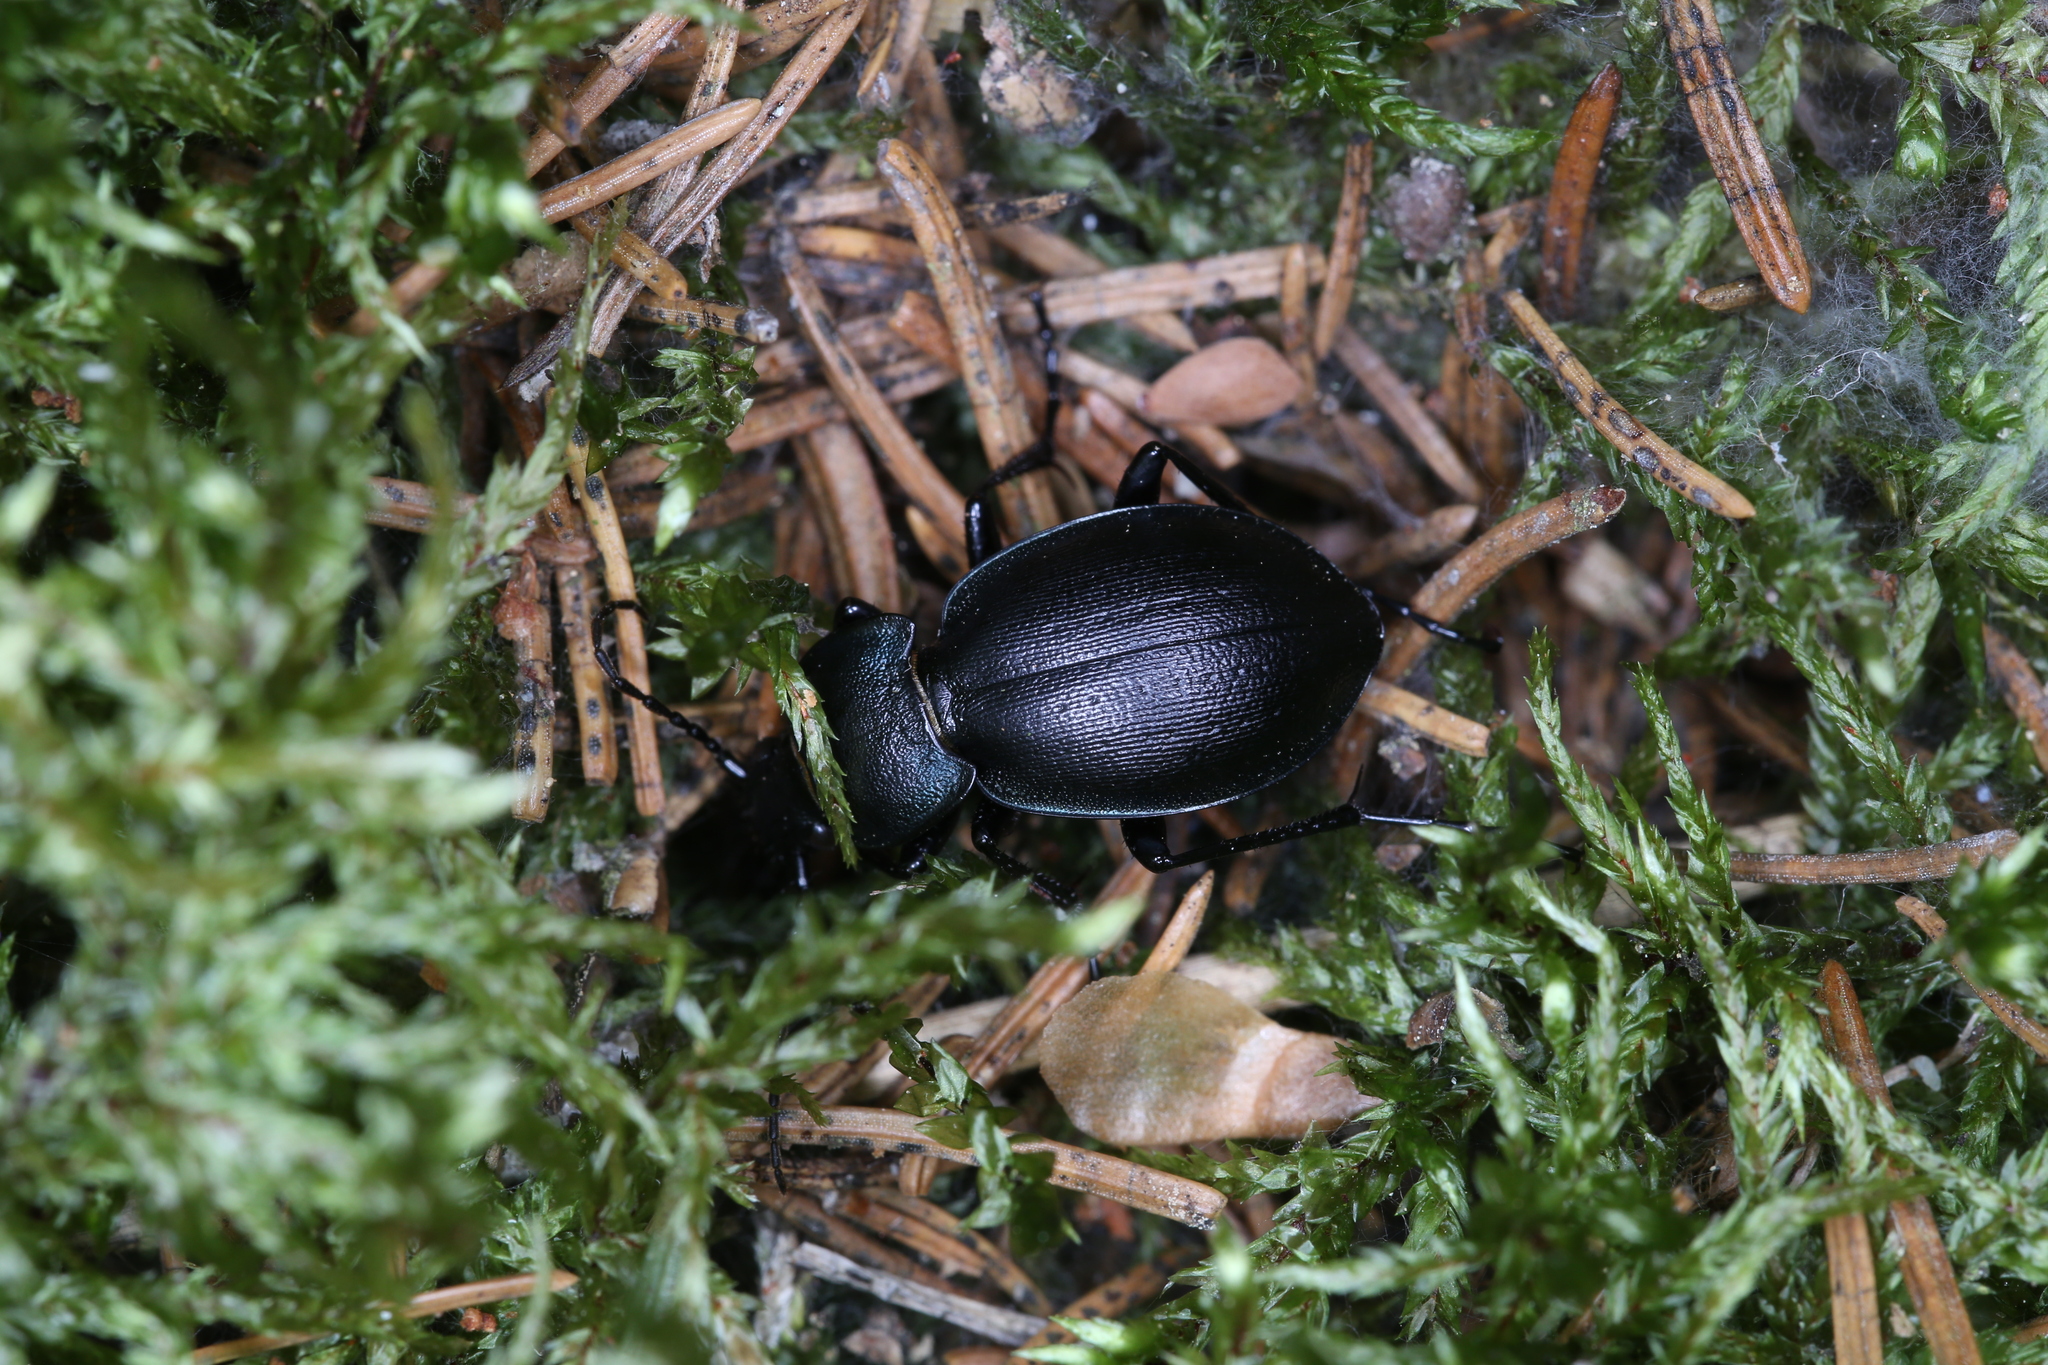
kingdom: Animalia
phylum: Arthropoda
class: Insecta
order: Coleoptera
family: Carabidae
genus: Carabus
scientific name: Carabus convexus
